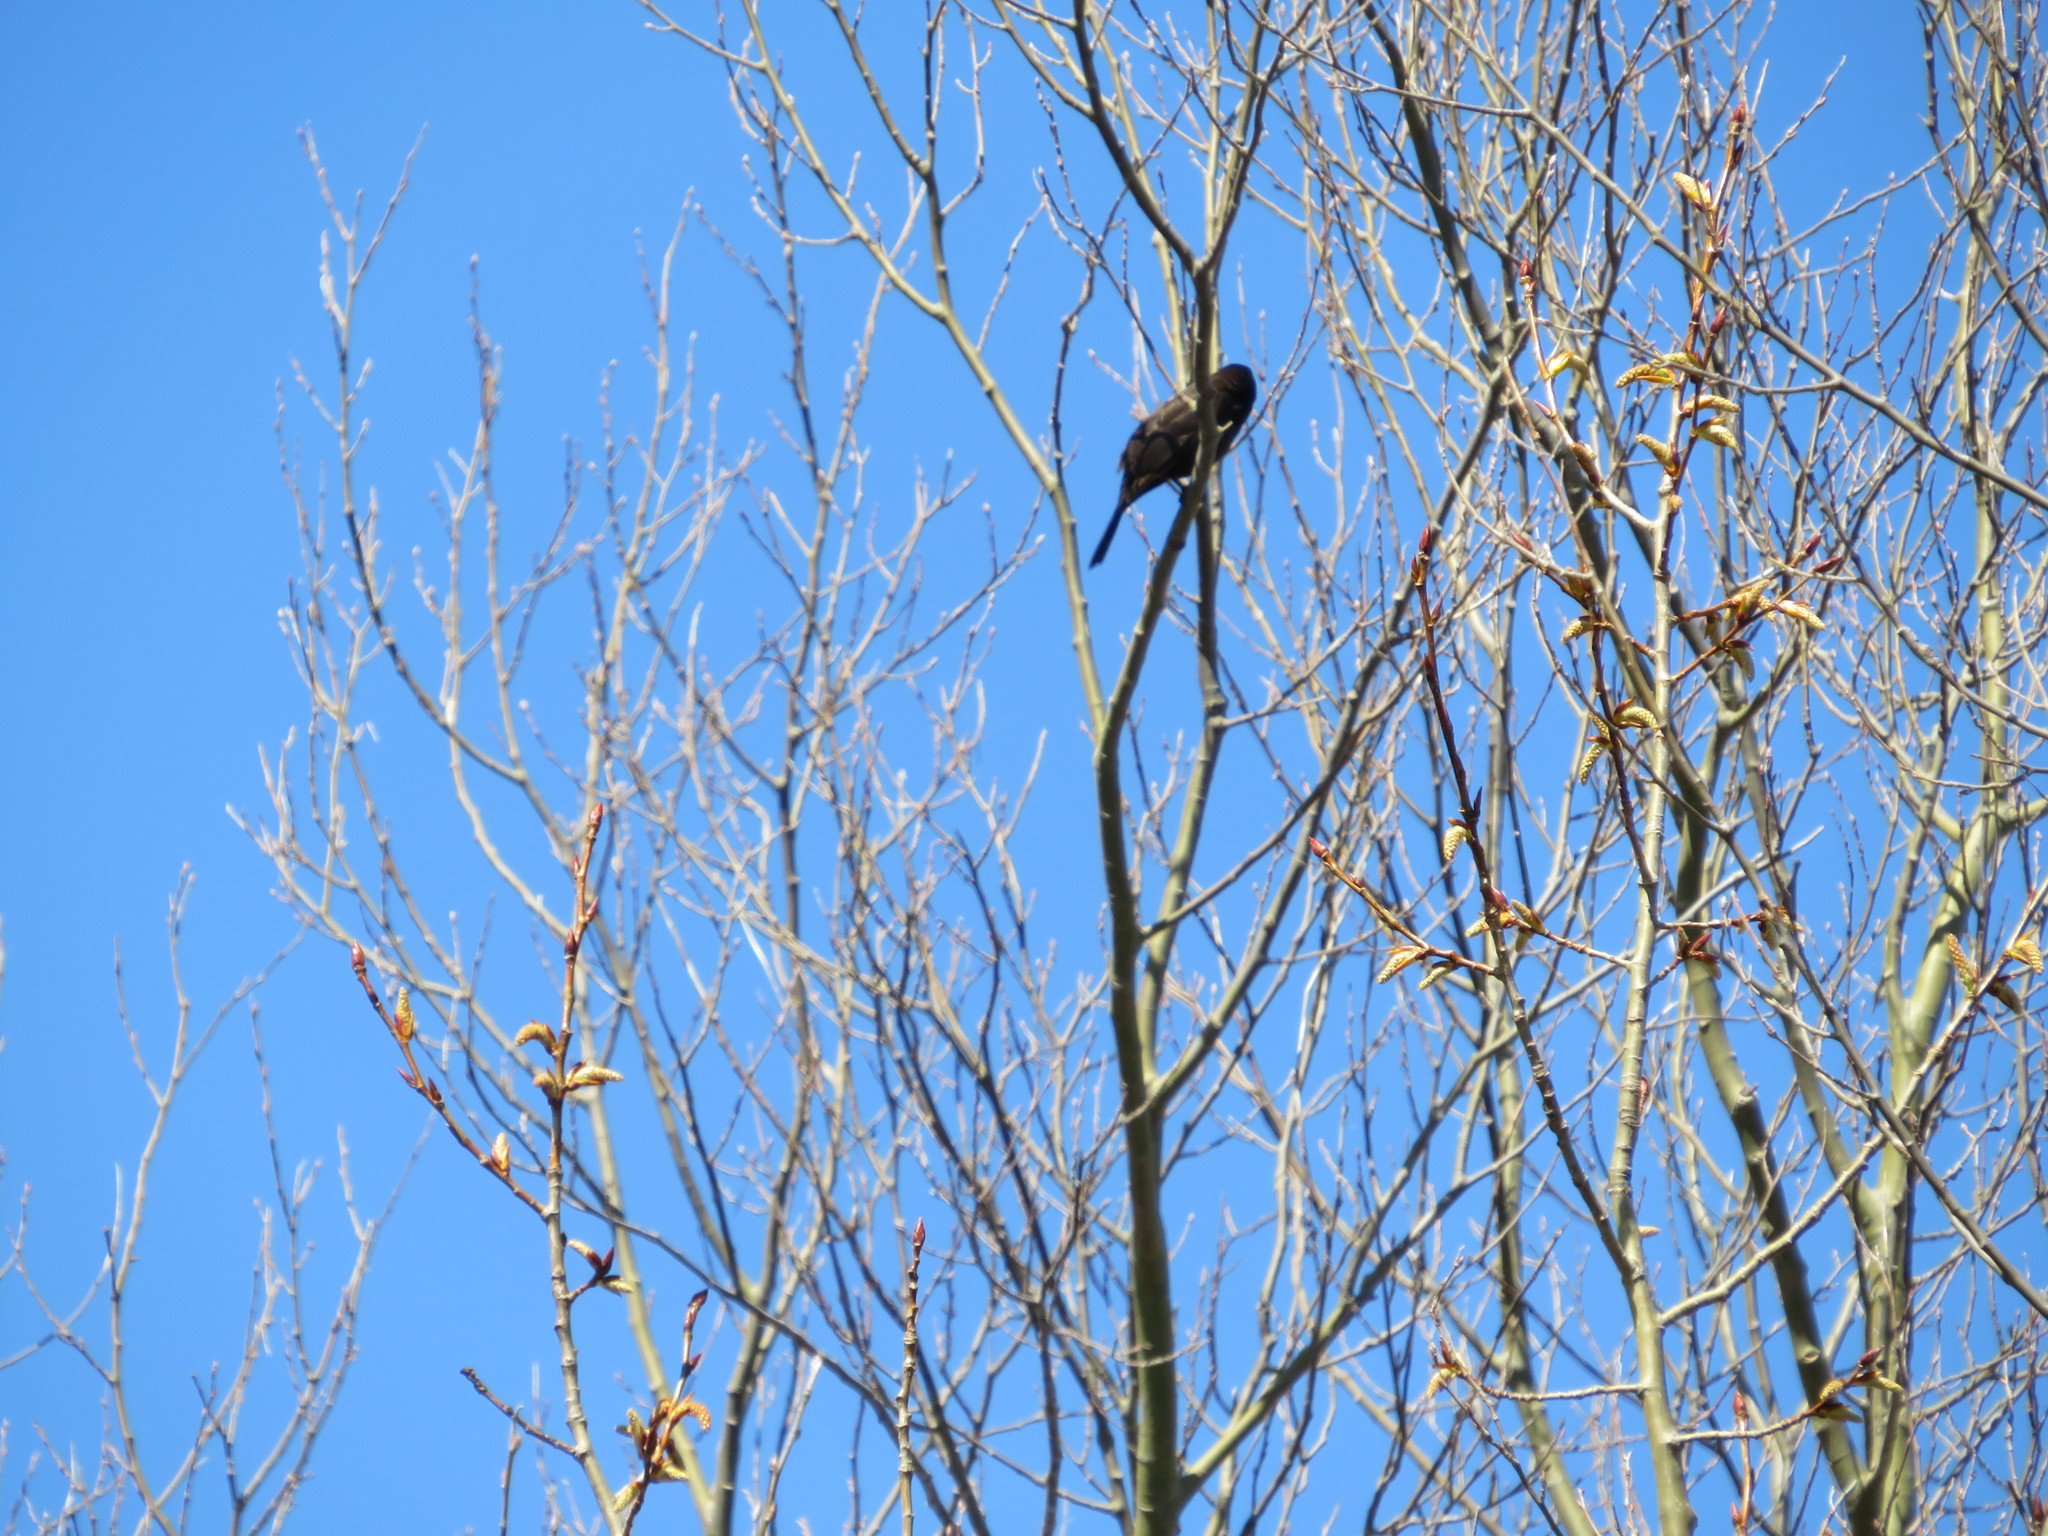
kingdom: Animalia
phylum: Chordata
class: Aves
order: Passeriformes
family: Icteridae
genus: Quiscalus
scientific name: Quiscalus quiscula
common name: Common grackle
